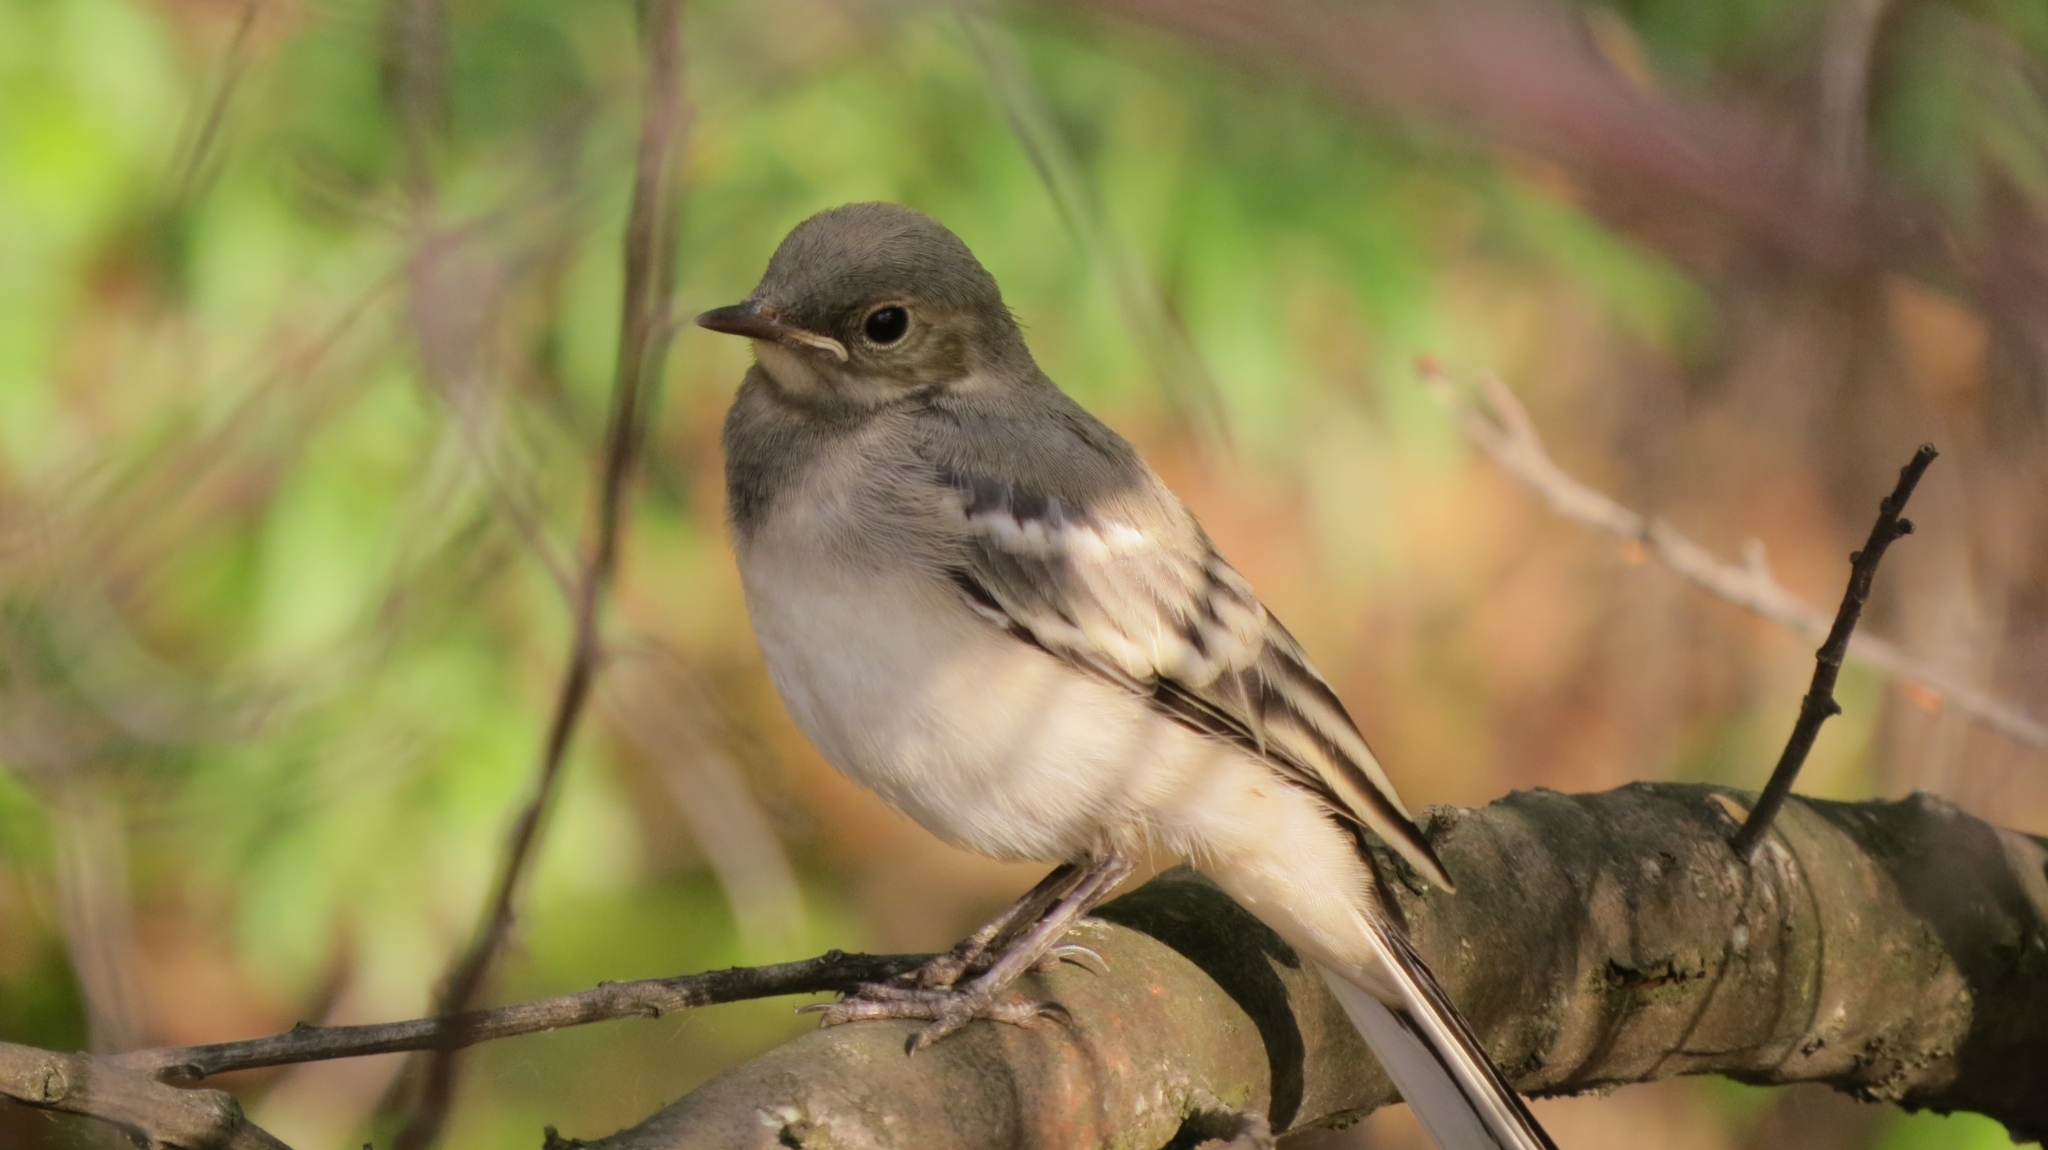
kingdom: Animalia
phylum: Chordata
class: Aves
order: Passeriformes
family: Motacillidae
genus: Motacilla
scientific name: Motacilla alba
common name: White wagtail
